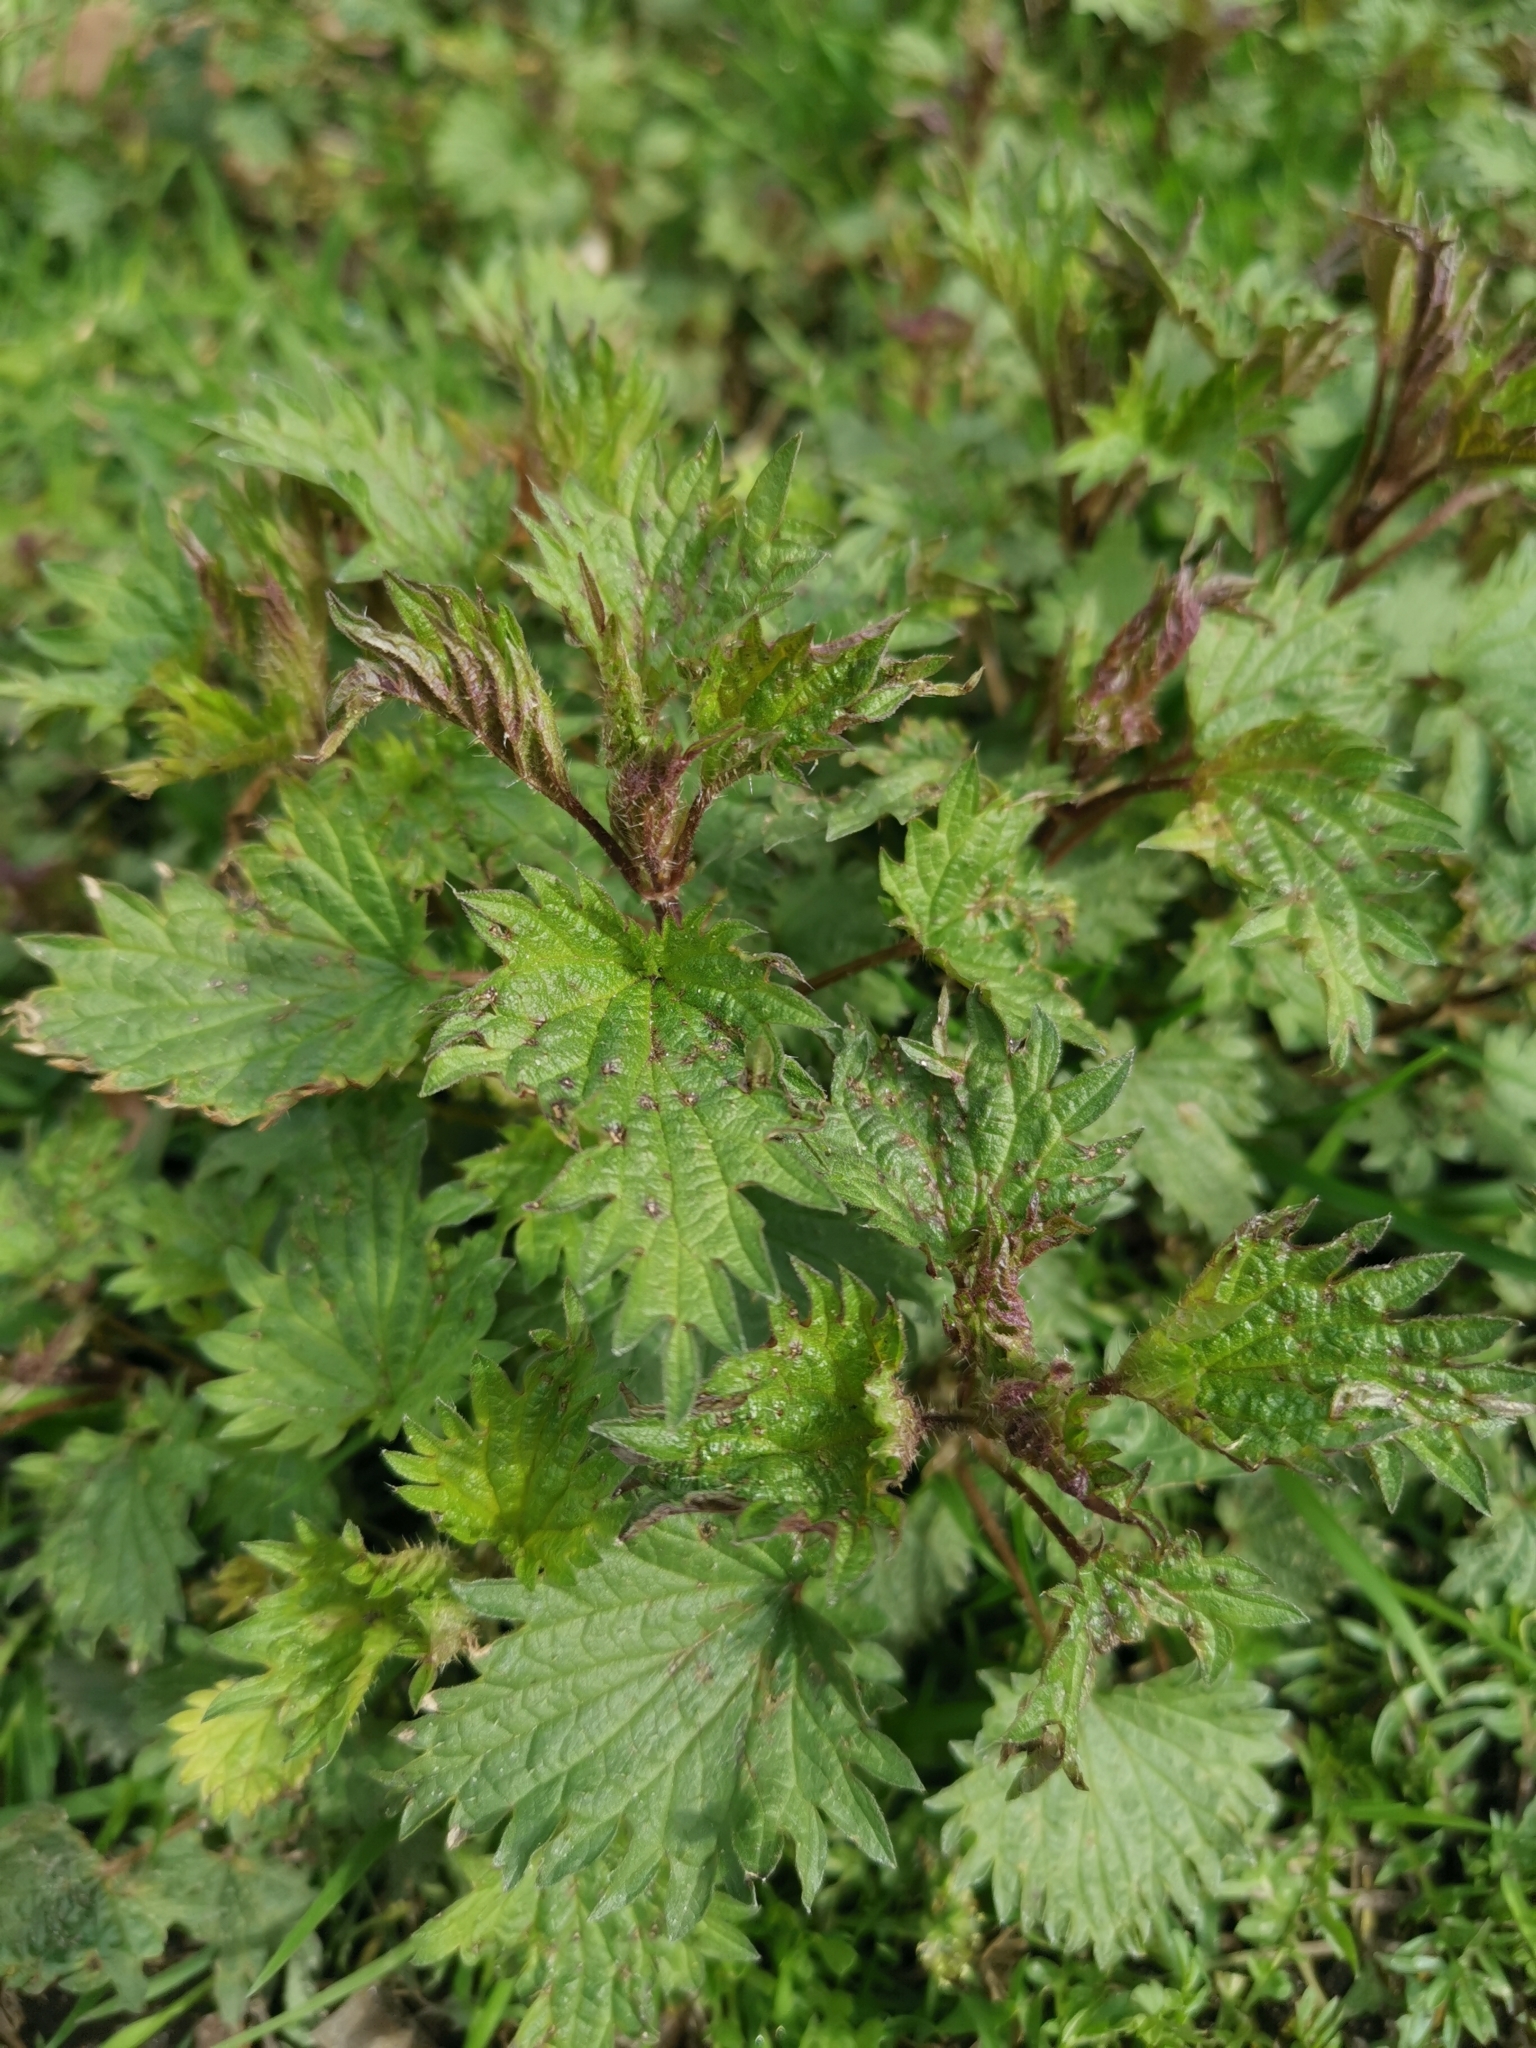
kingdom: Plantae
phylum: Tracheophyta
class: Magnoliopsida
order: Rosales
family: Urticaceae
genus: Urtica
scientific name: Urtica dioica
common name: Common nettle
